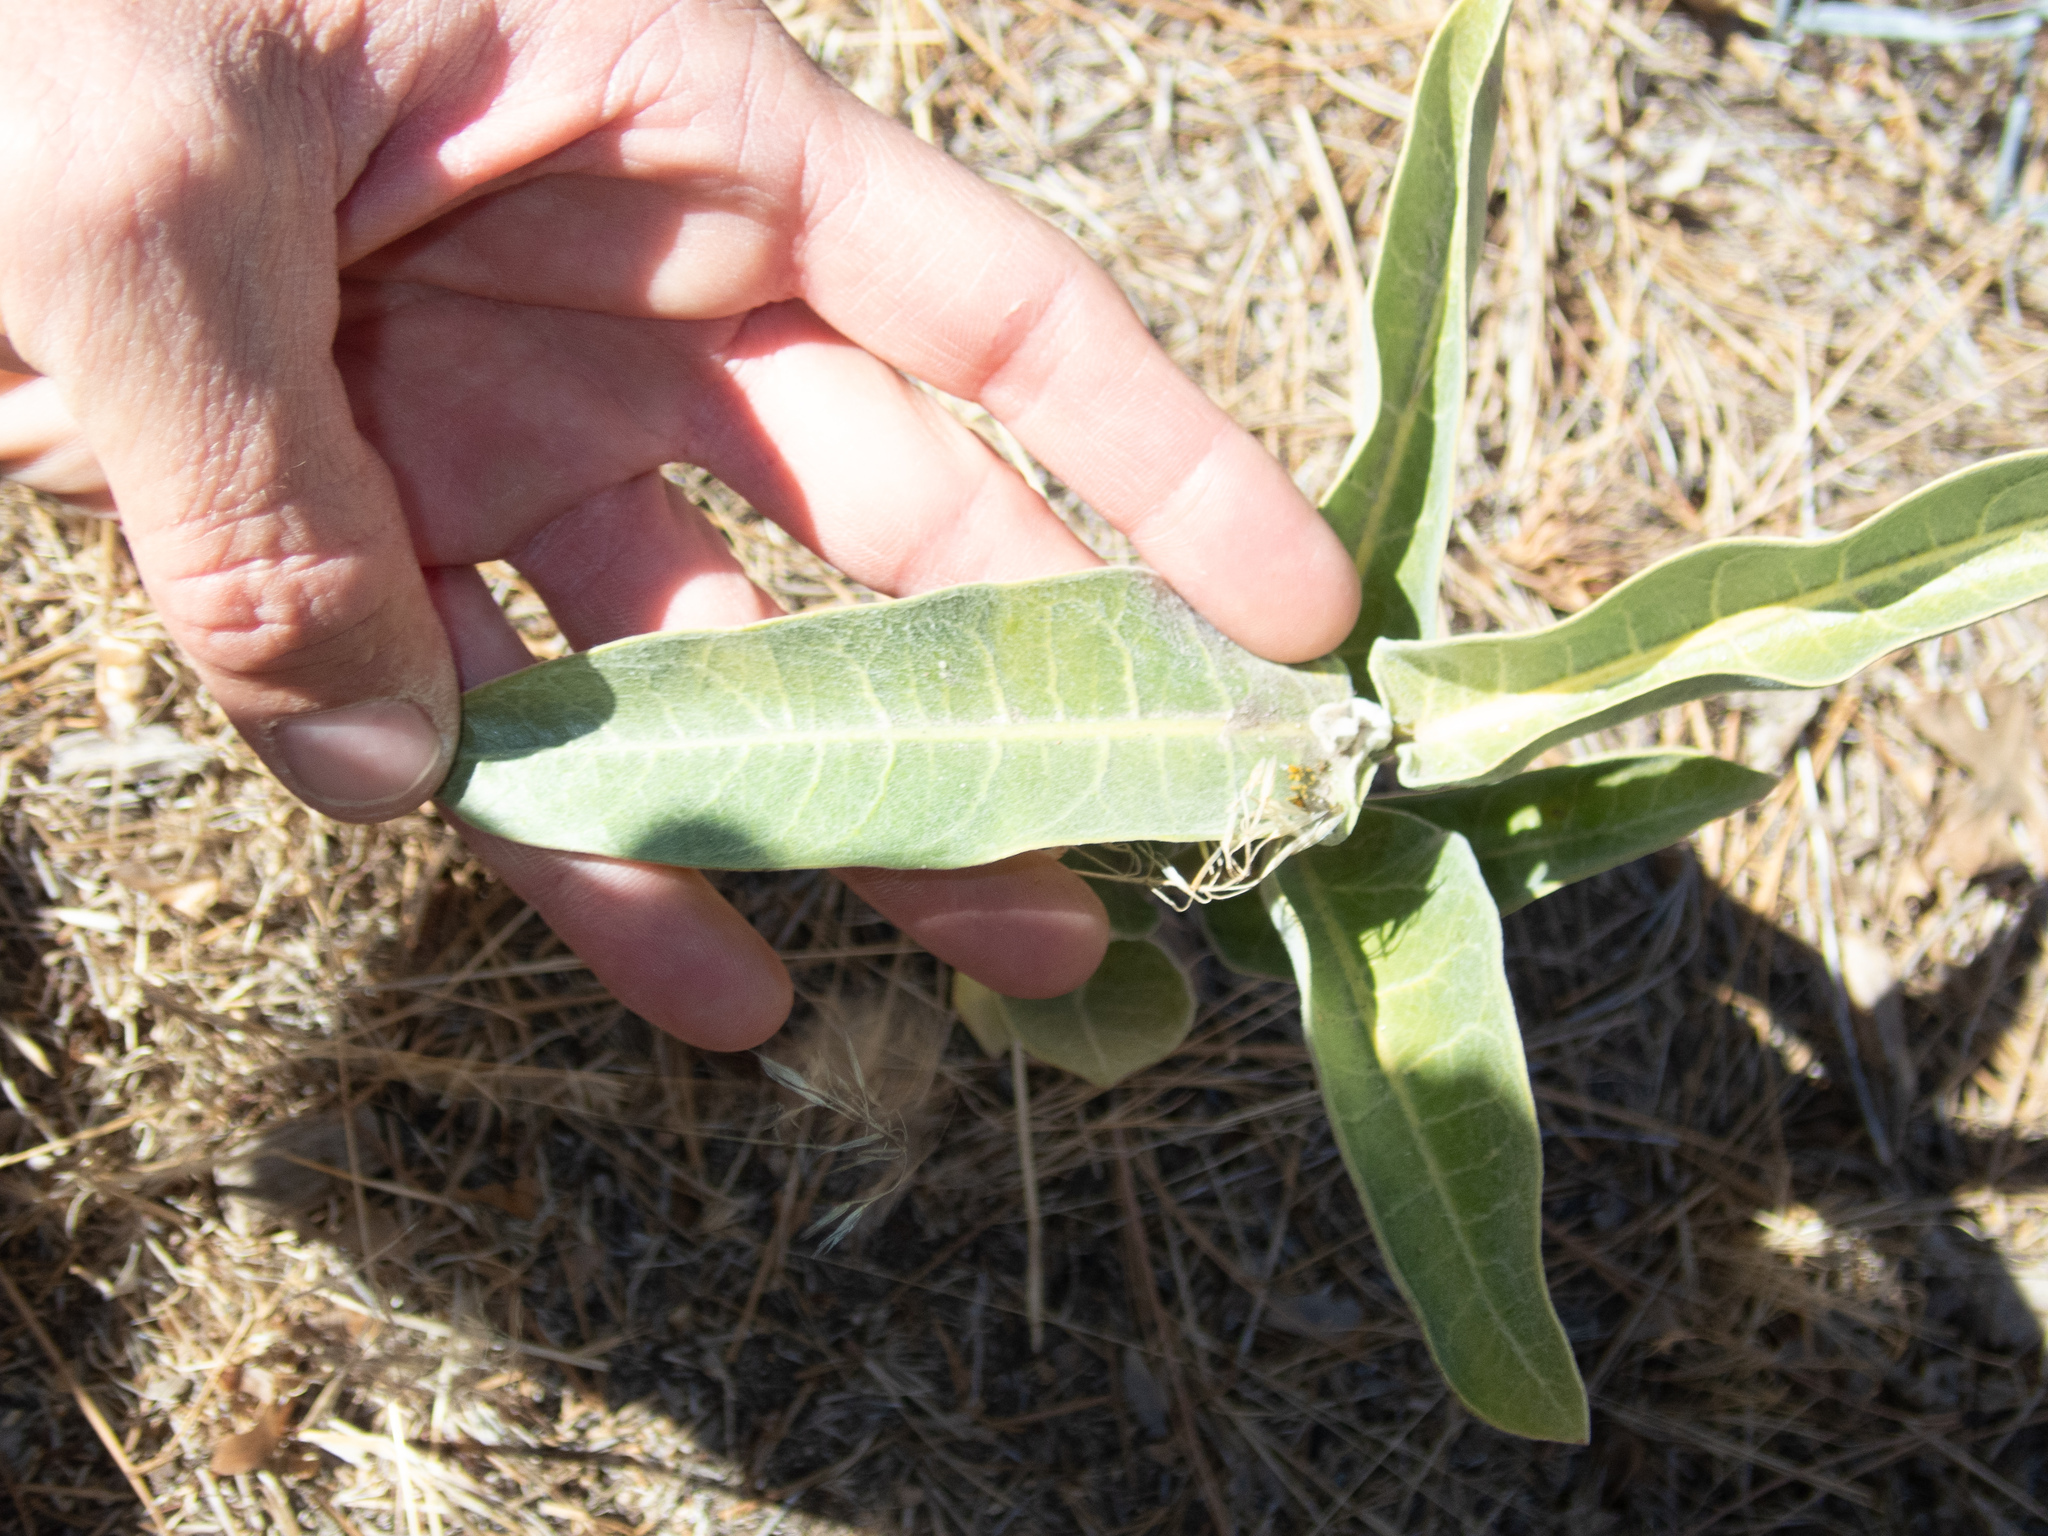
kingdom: Plantae
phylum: Tracheophyta
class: Magnoliopsida
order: Gentianales
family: Apocynaceae
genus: Asclepias
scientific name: Asclepias eriocarpa
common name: Indian milkweed
